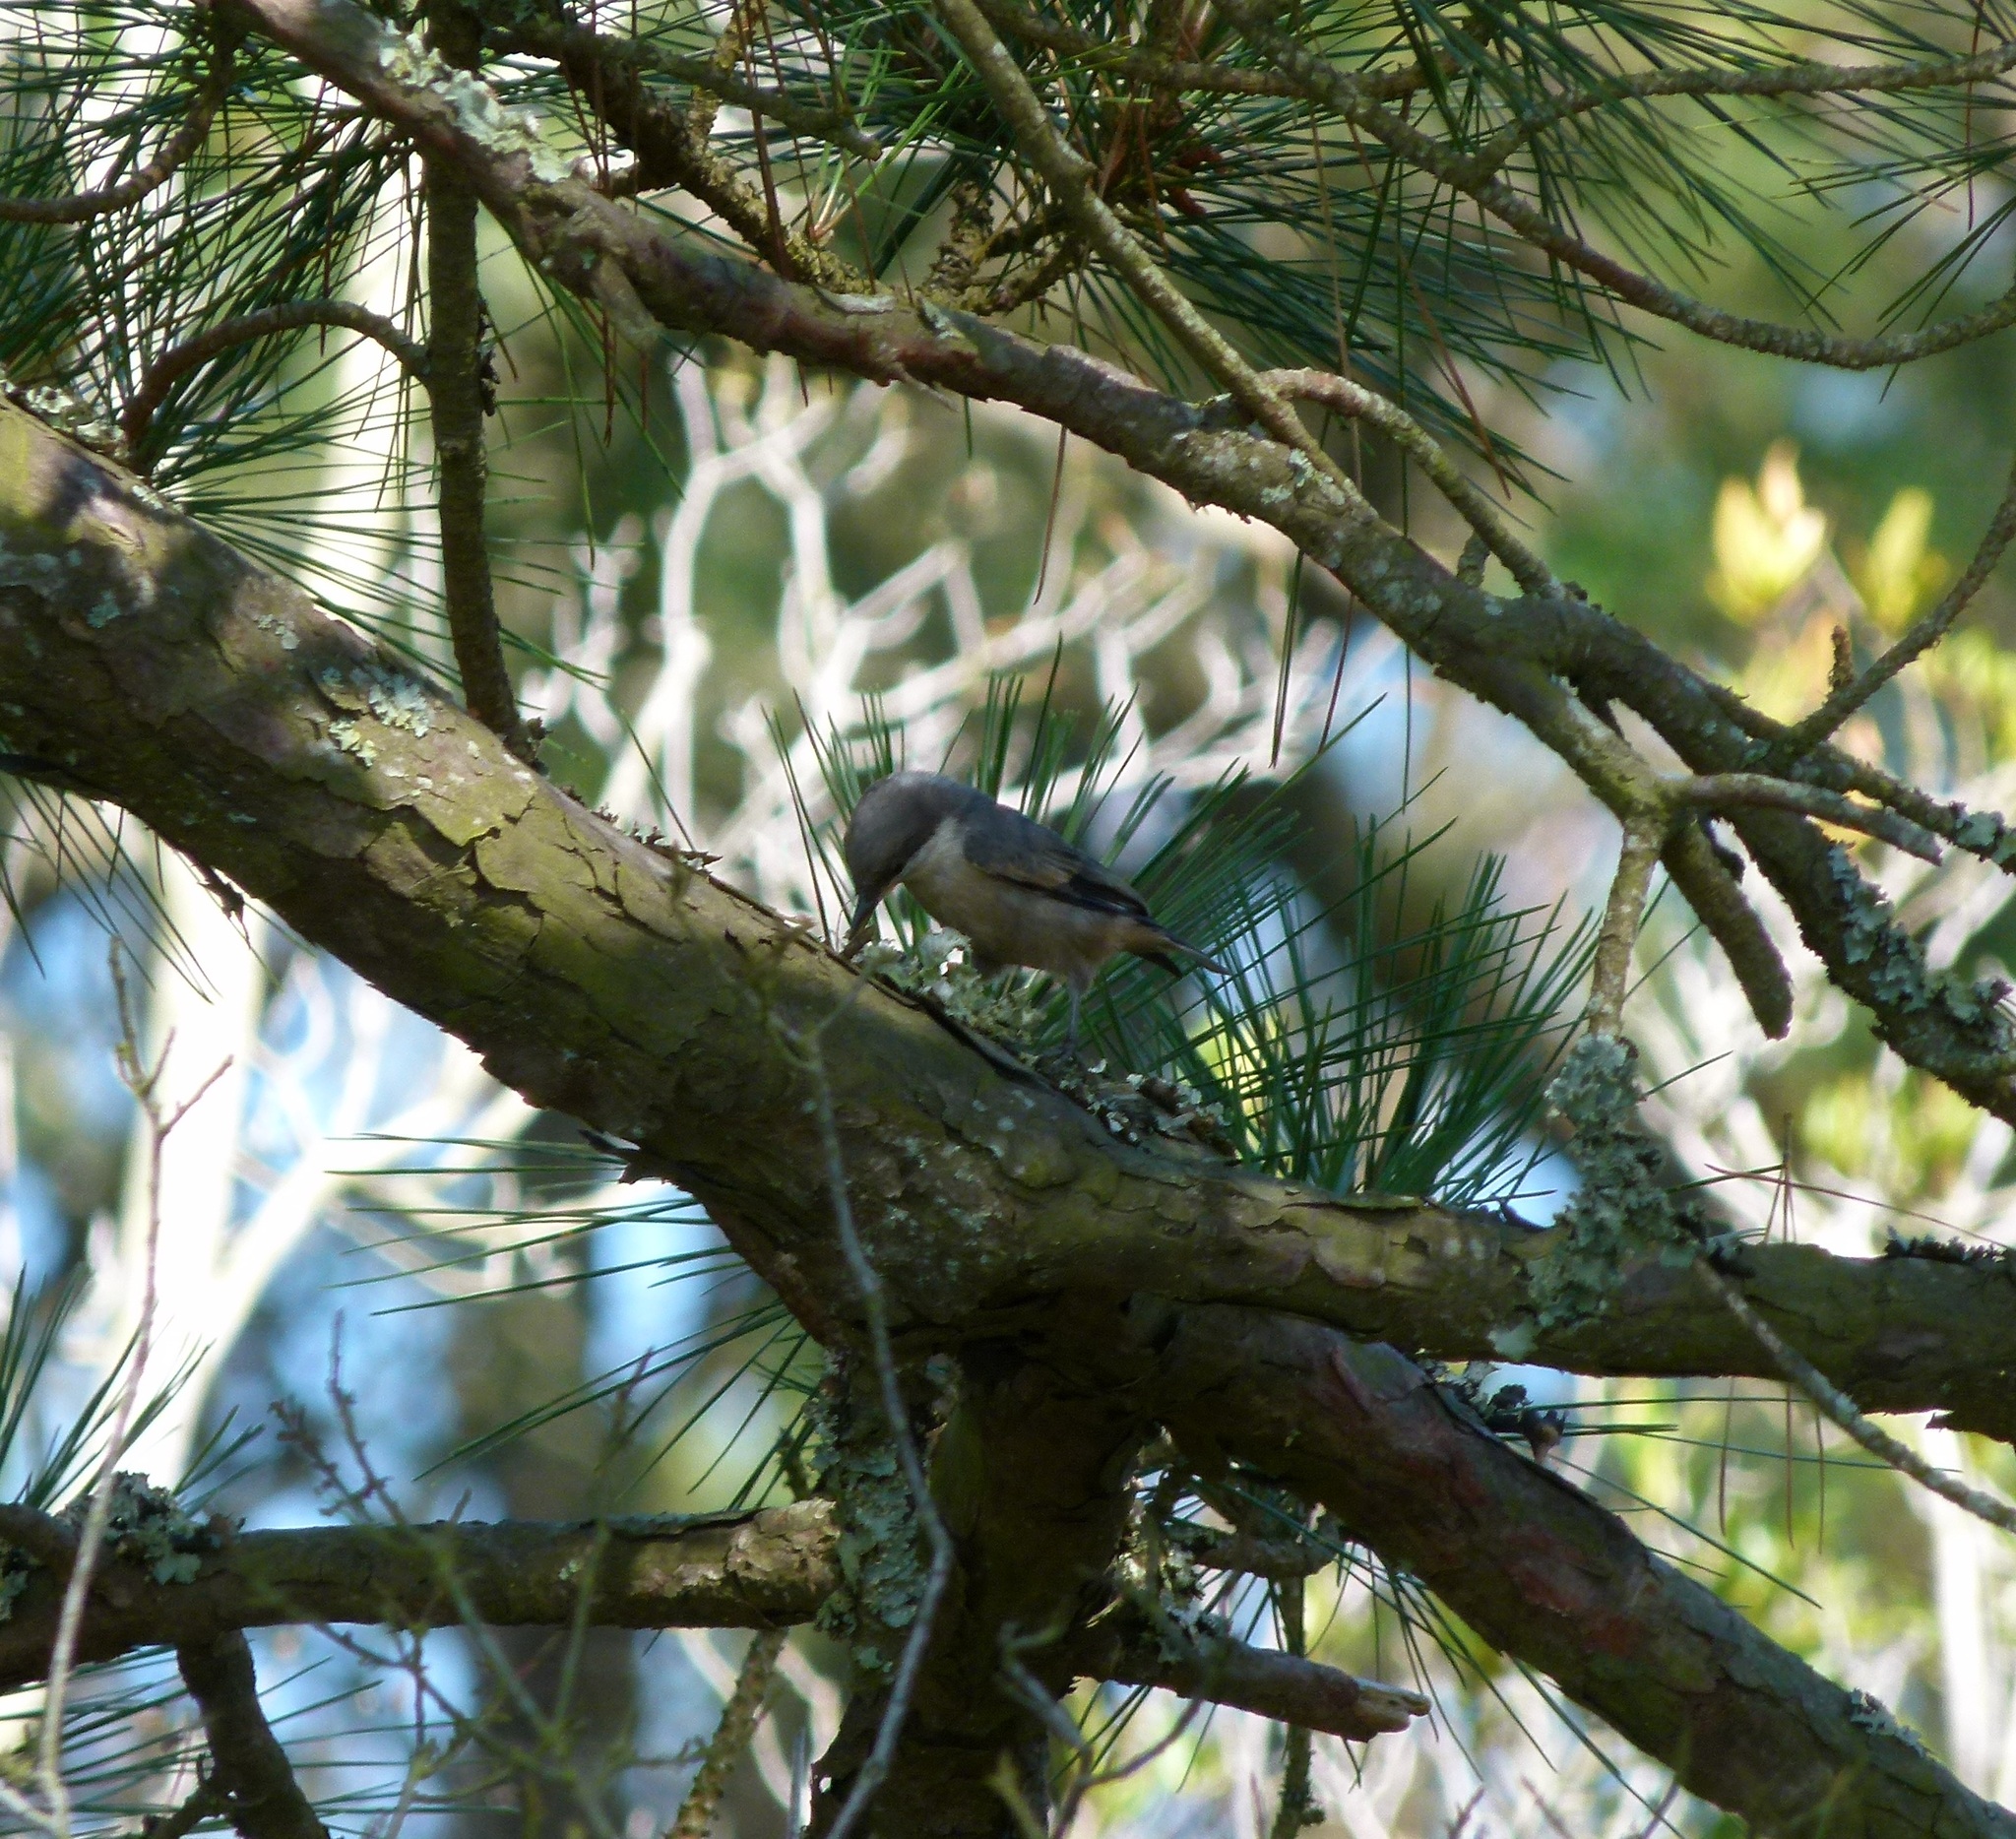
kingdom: Animalia
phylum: Chordata
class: Aves
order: Passeriformes
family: Sittidae
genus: Sitta
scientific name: Sitta pusilla
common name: Brown-headed nuthatch
